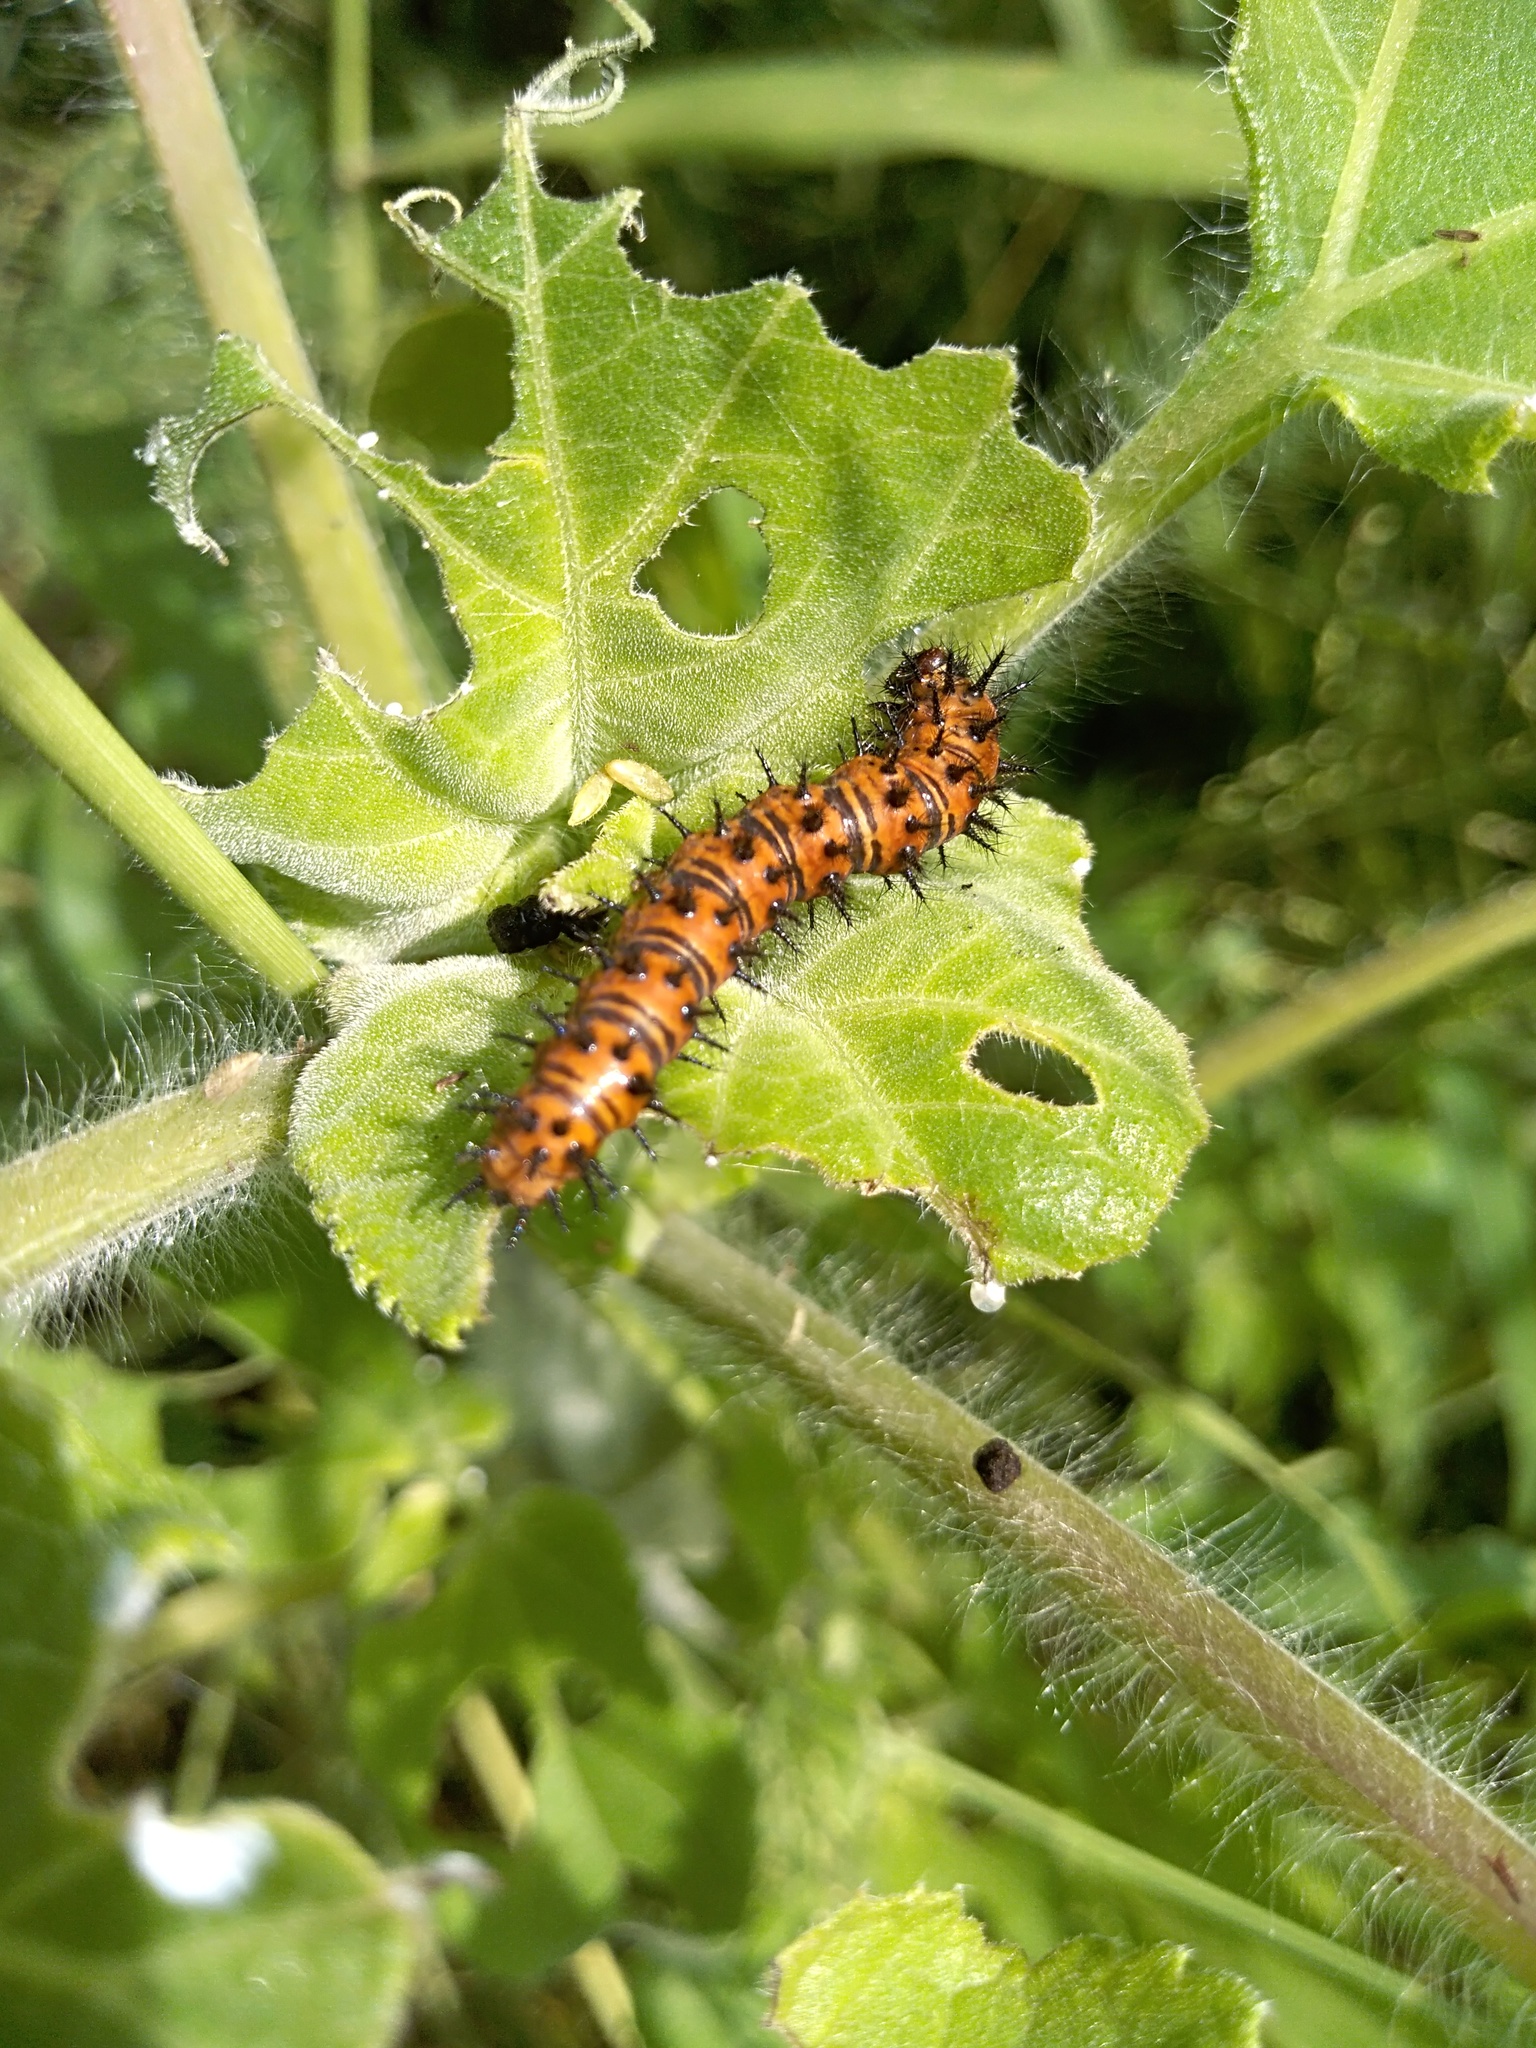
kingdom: Animalia
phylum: Arthropoda
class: Insecta
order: Lepidoptera
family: Nymphalidae
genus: Chlosyne
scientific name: Chlosyne lacinia
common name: Bordered patch
